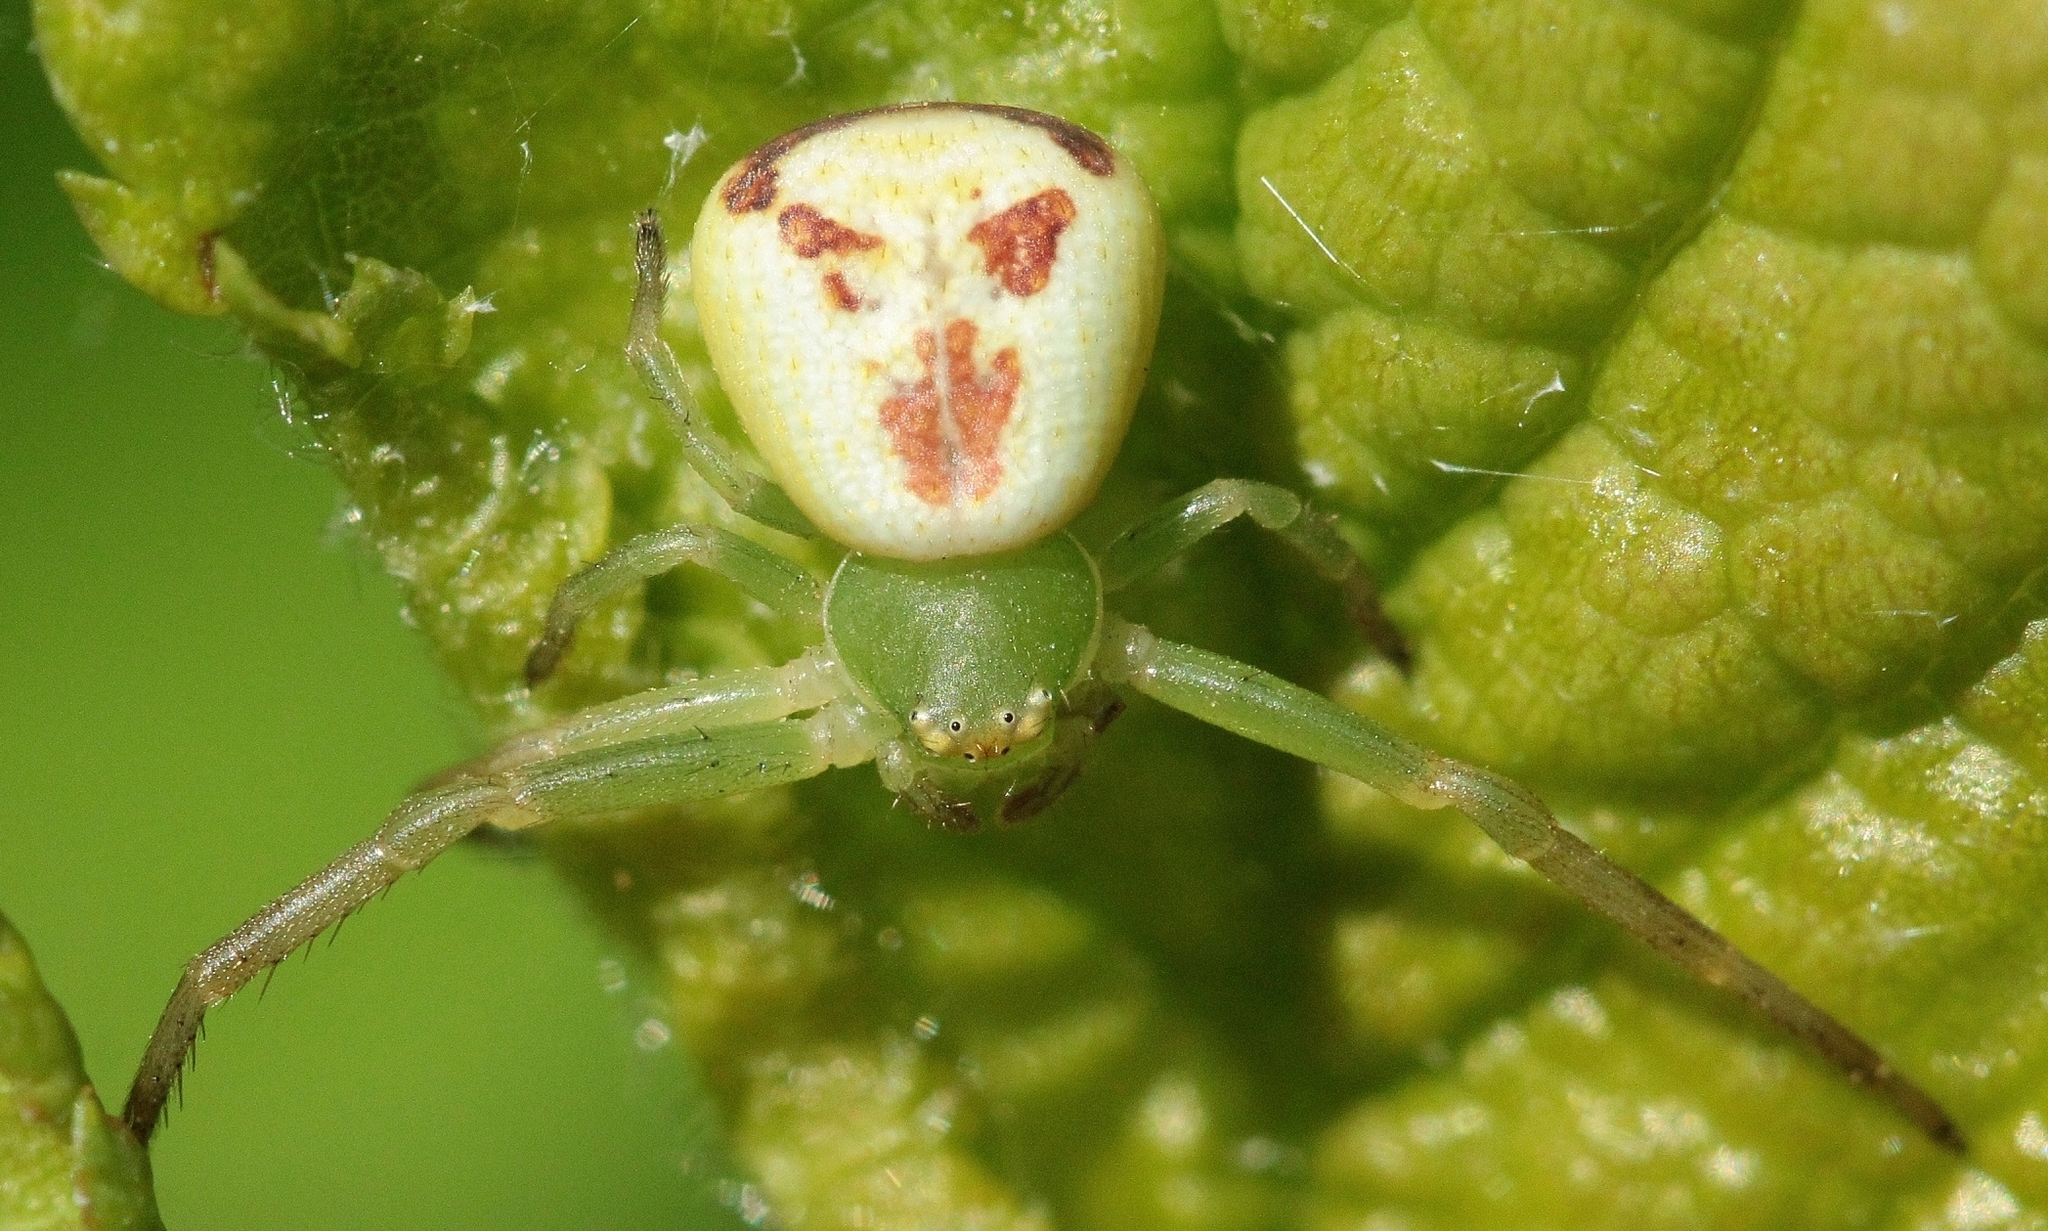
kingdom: Animalia
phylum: Arthropoda
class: Arachnida
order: Araneae
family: Thomisidae
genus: Ebrechtella
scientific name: Ebrechtella tricuspidata
